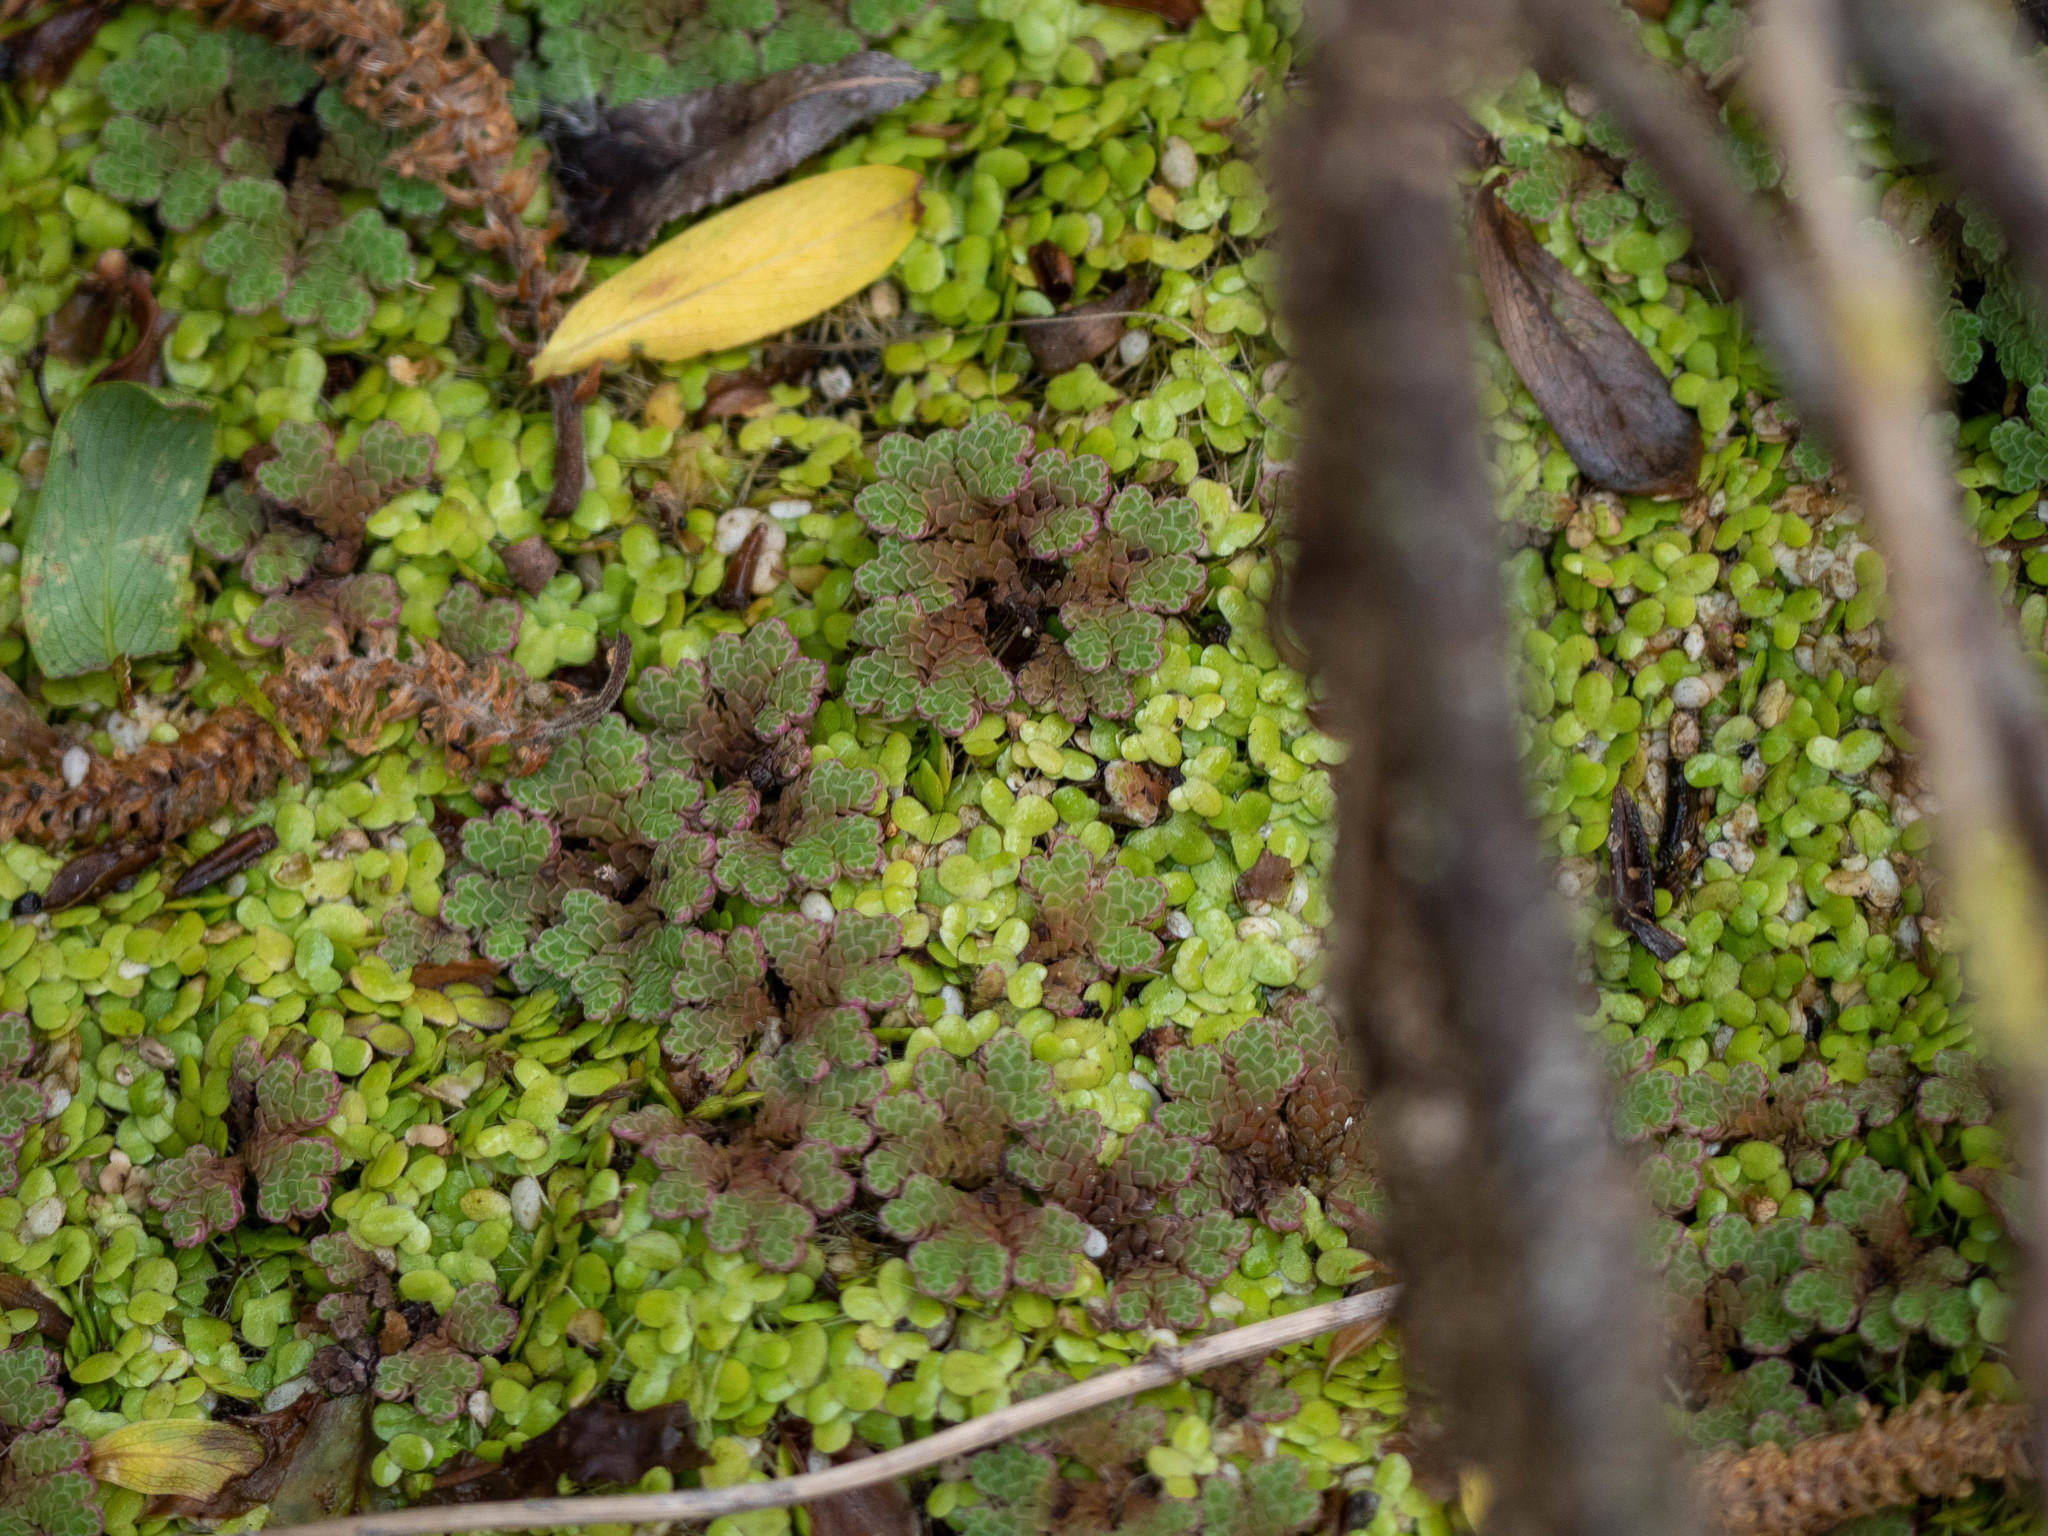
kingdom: Plantae
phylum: Tracheophyta
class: Polypodiopsida
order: Salviniales
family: Salviniaceae
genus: Azolla
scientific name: Azolla rubra
